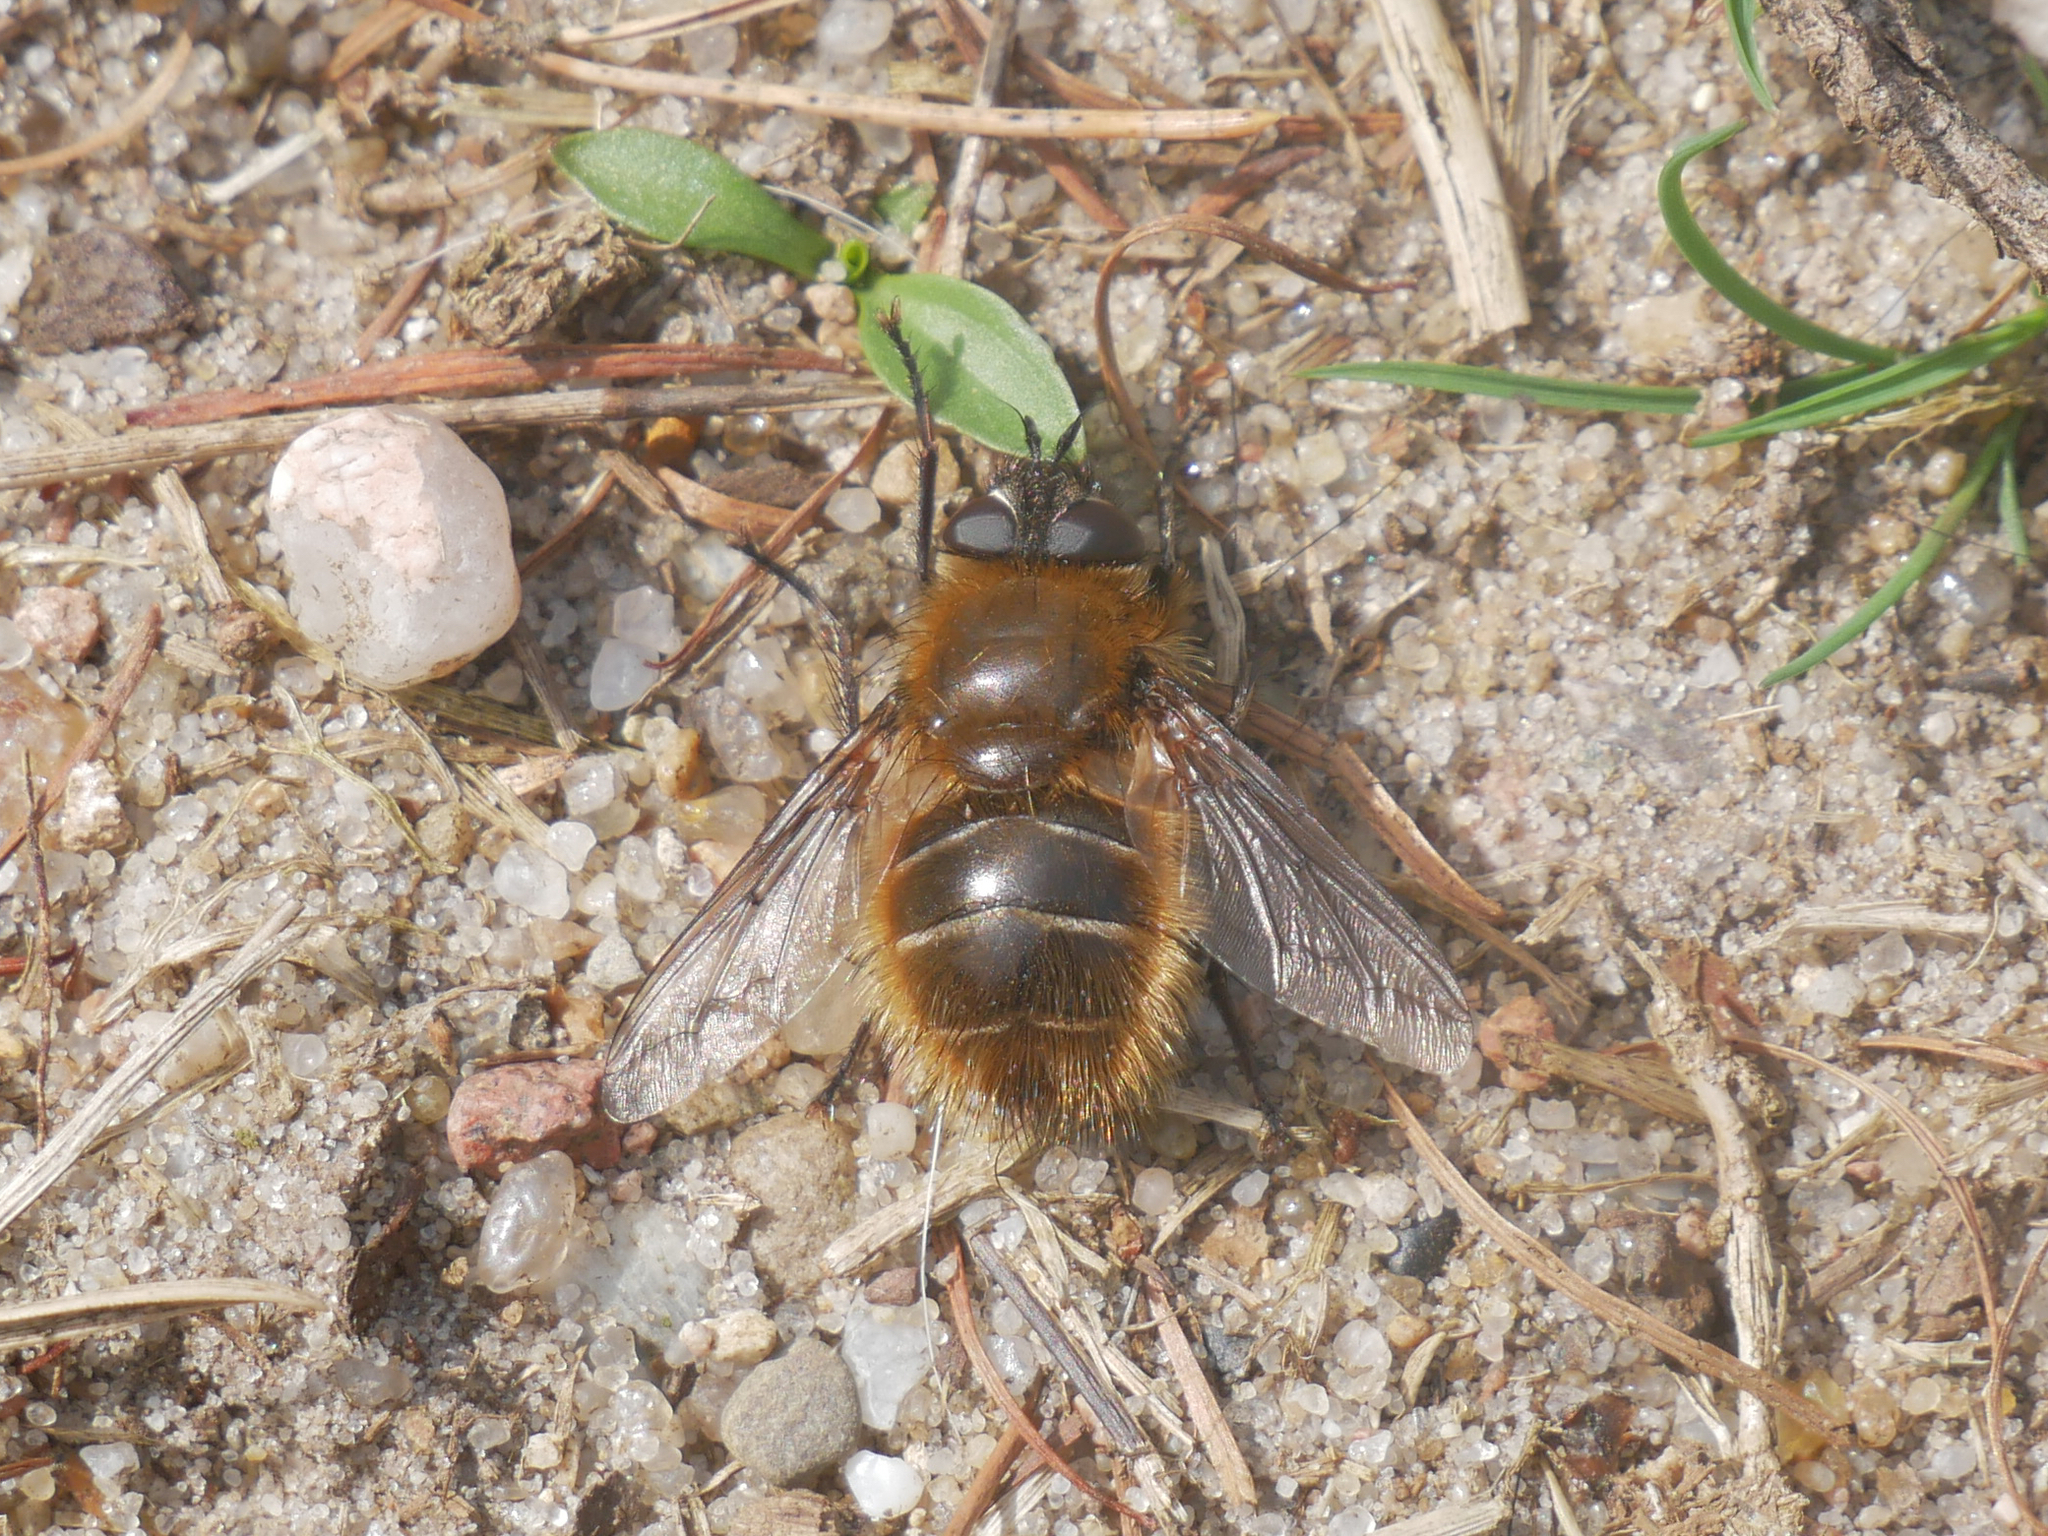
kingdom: Animalia
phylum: Arthropoda
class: Insecta
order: Diptera
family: Tachinidae
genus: Tachina
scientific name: Tachina ursina
